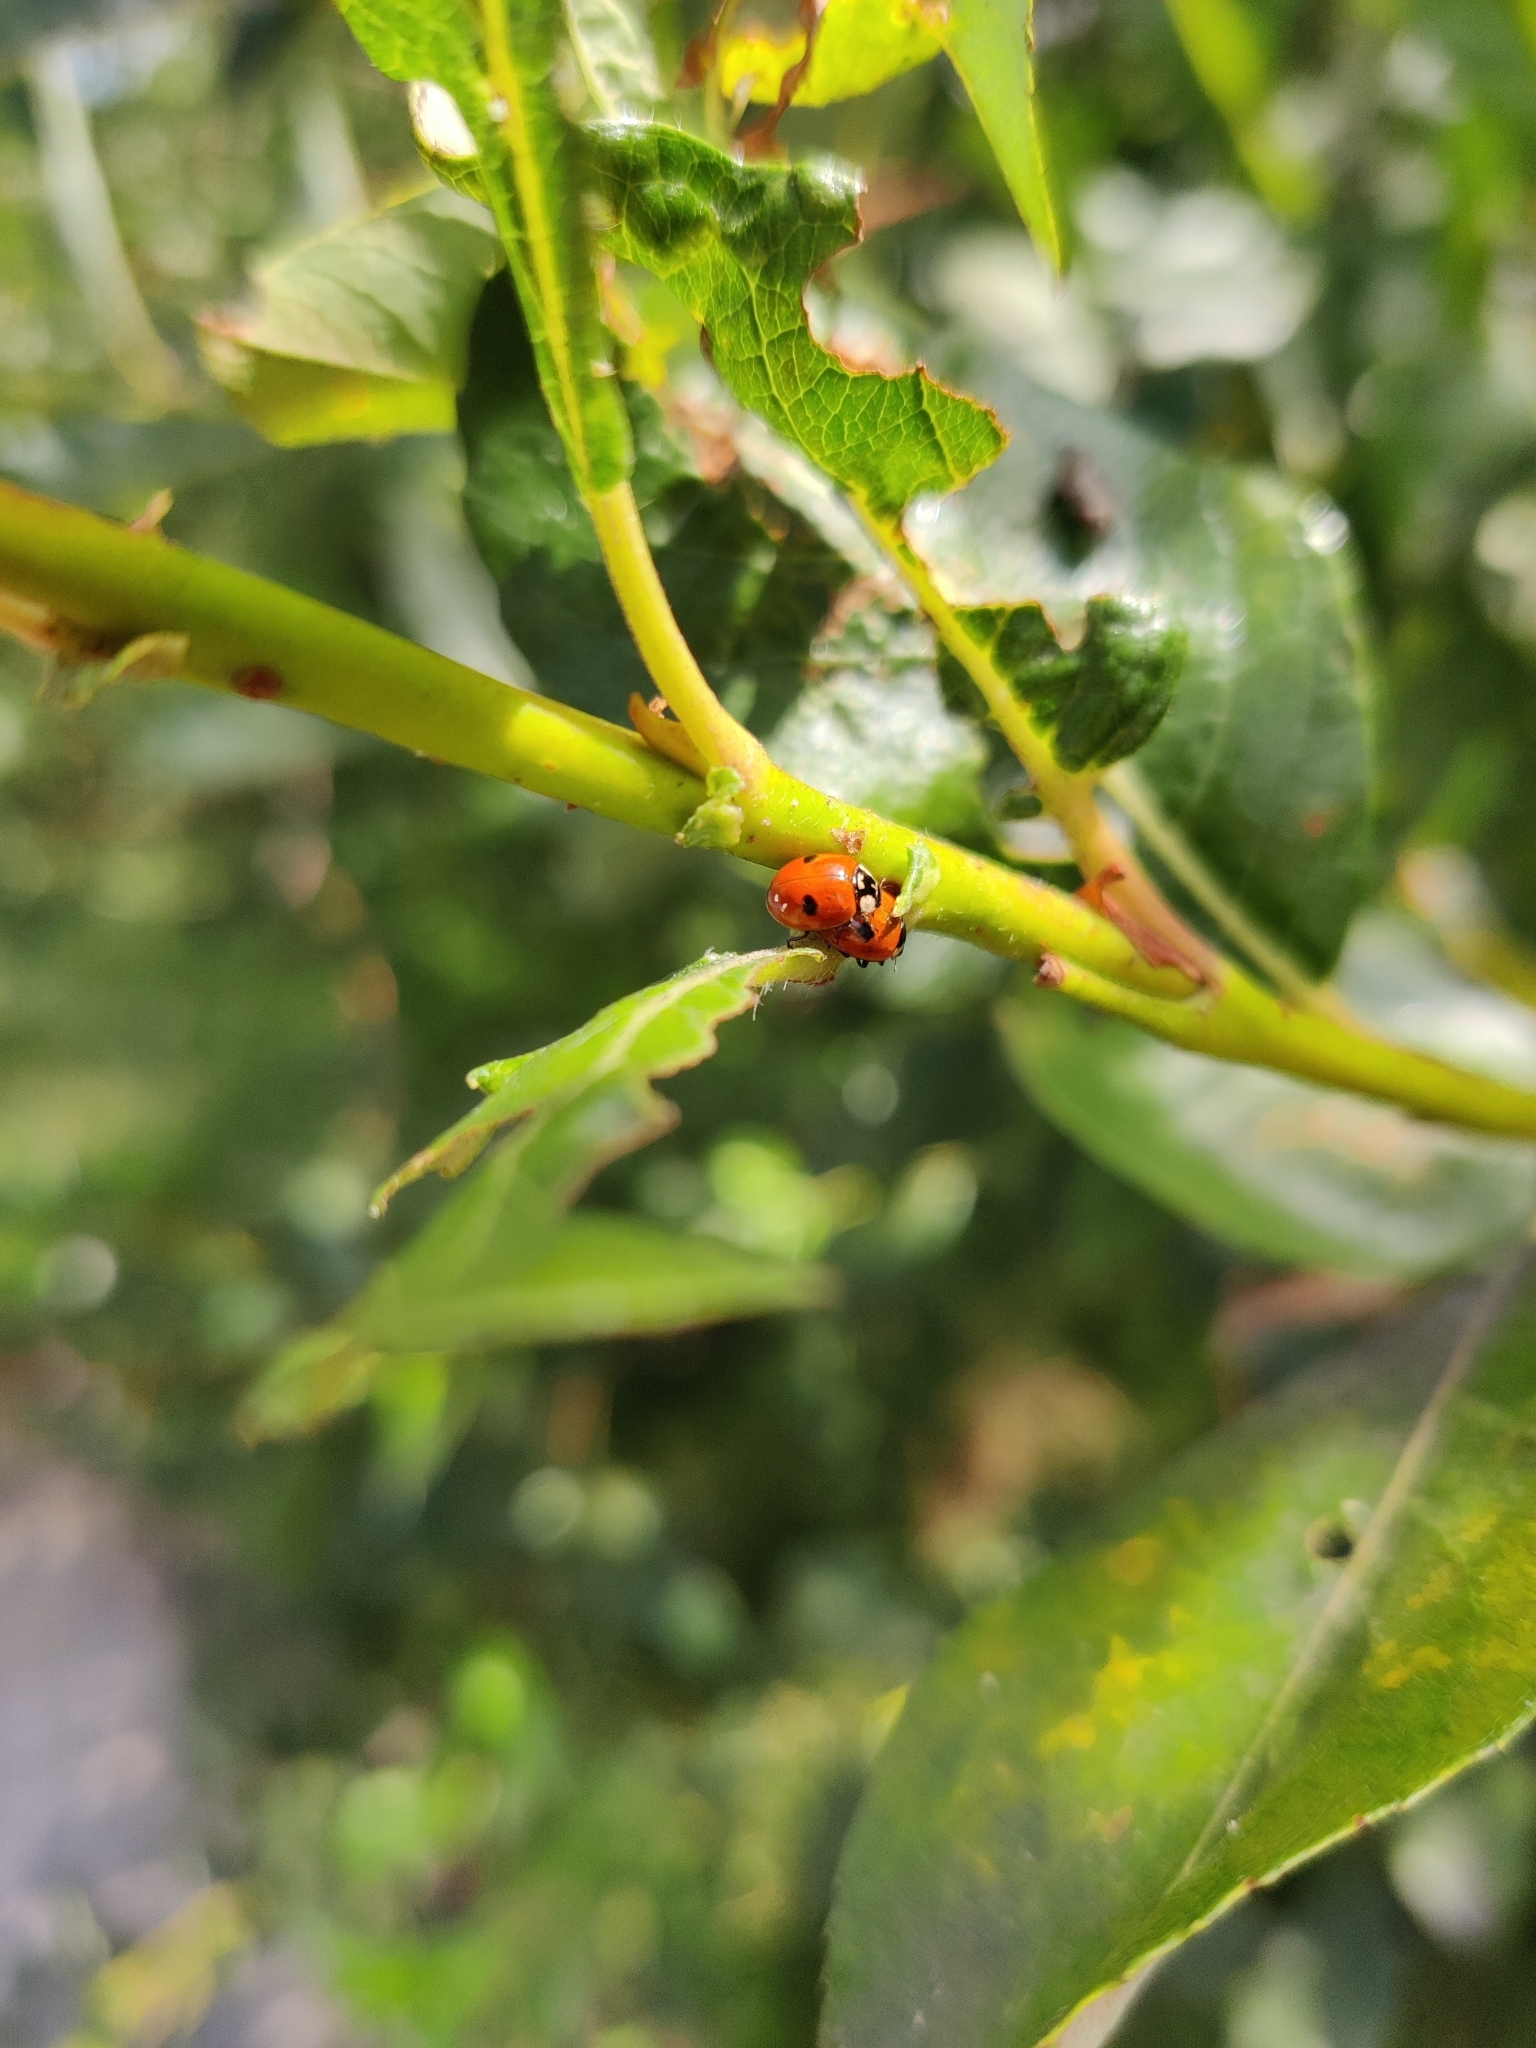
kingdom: Animalia
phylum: Arthropoda
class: Insecta
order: Coleoptera
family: Coccinellidae
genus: Adalia
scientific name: Adalia bipunctata
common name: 2-spot ladybird
